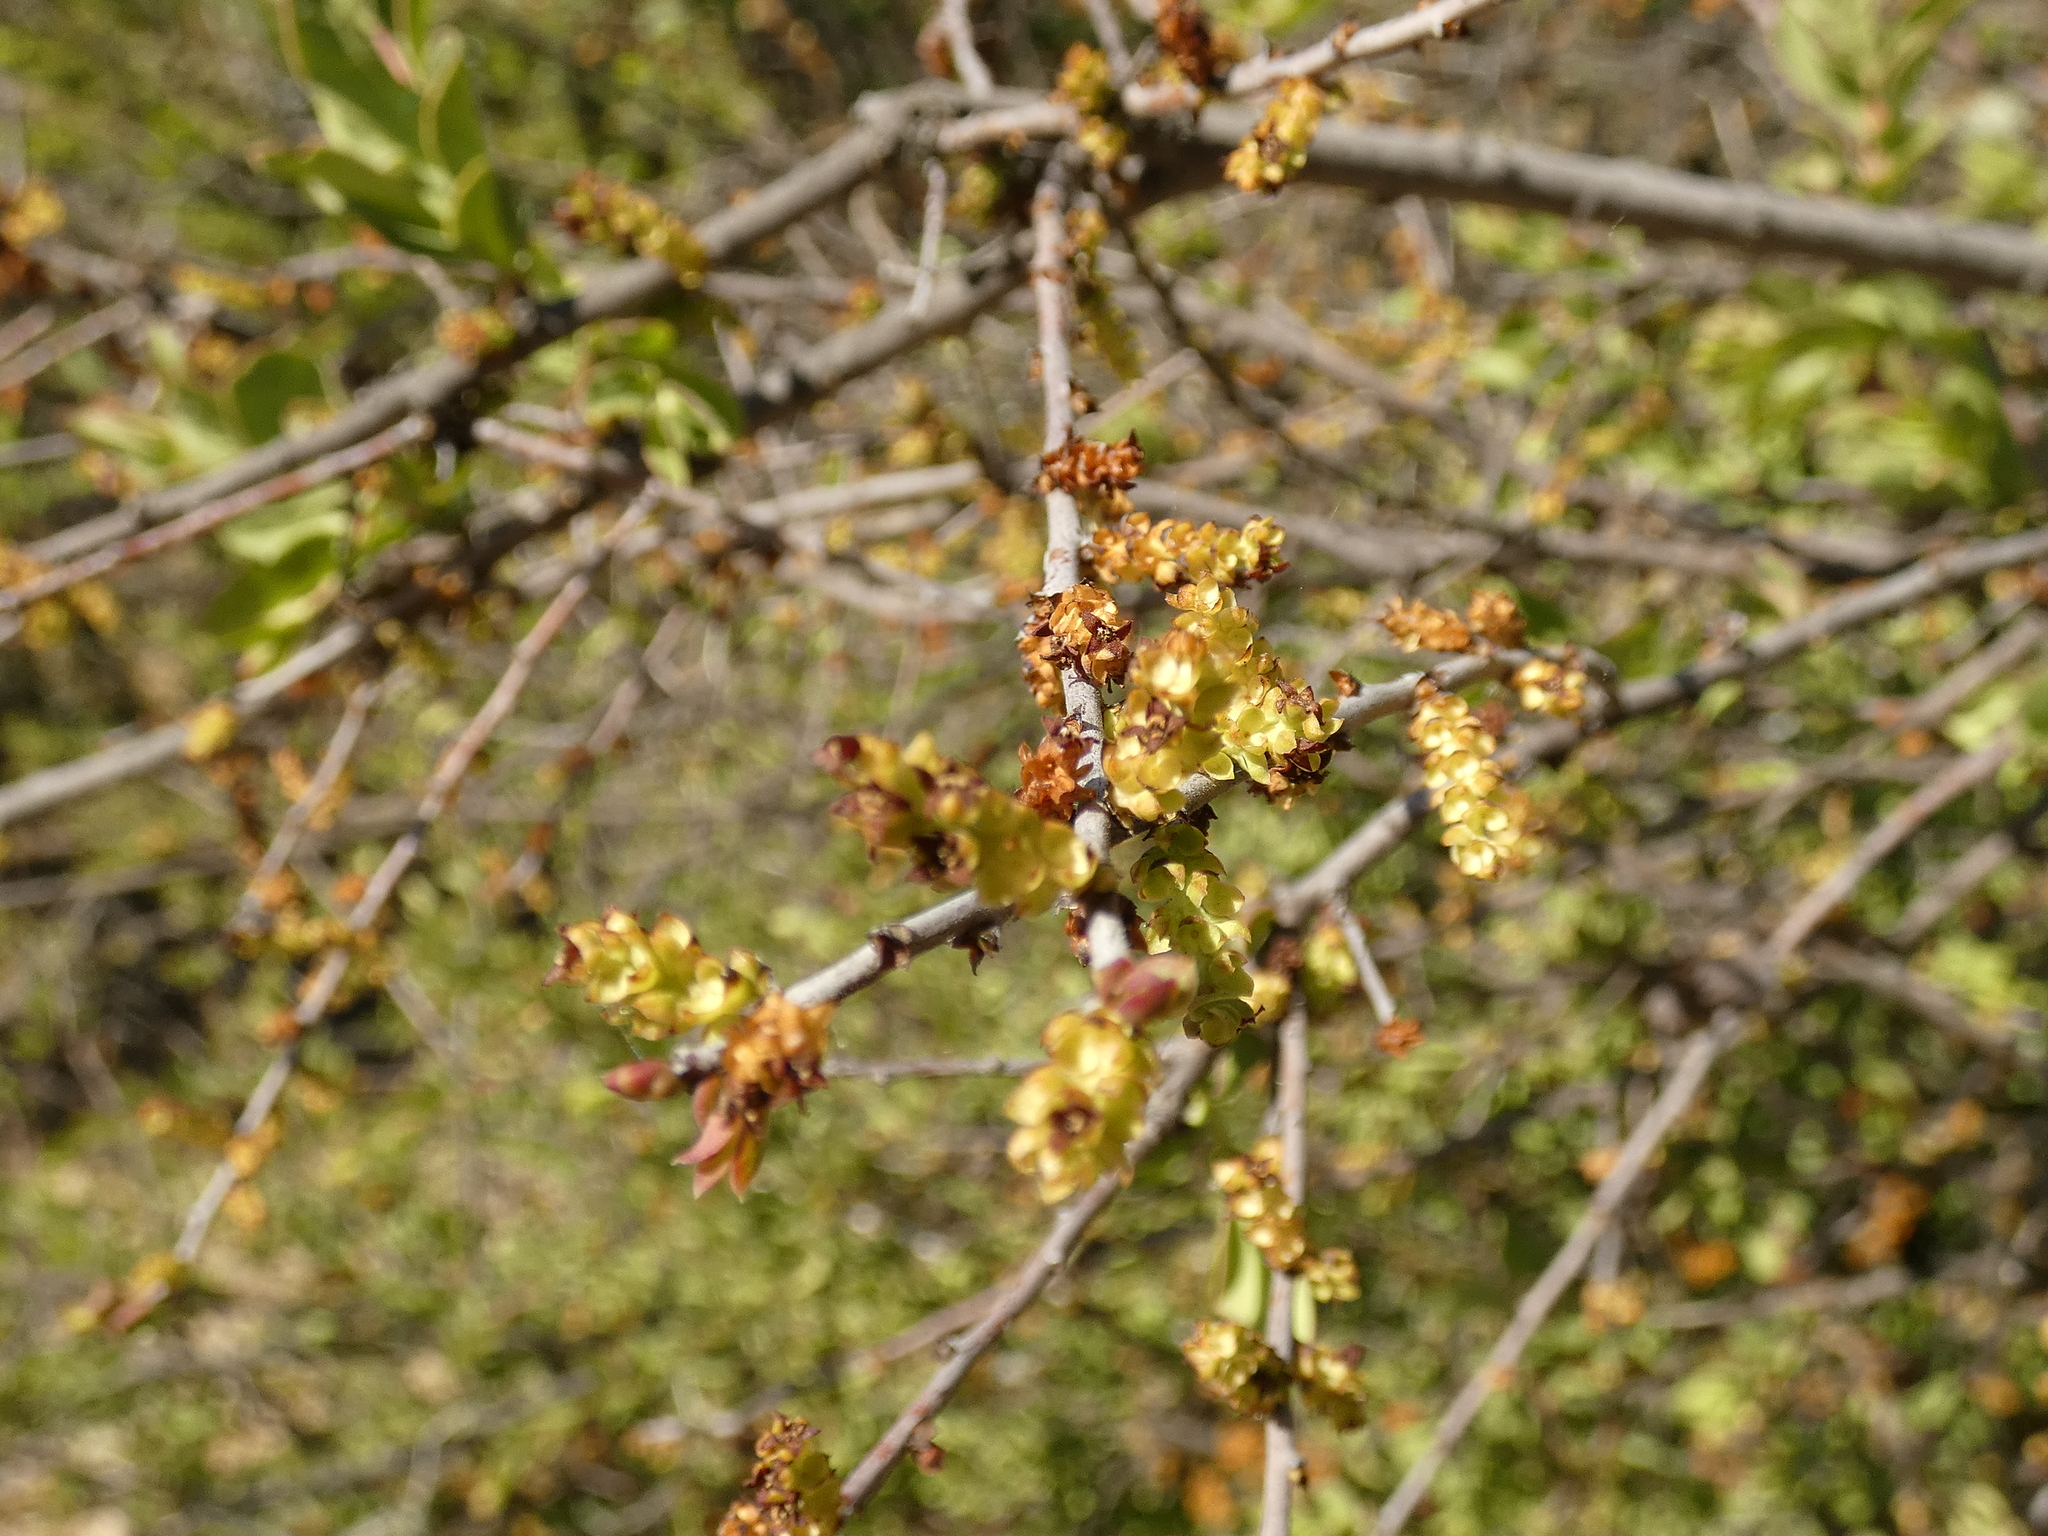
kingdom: Plantae
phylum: Tracheophyta
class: Magnoliopsida
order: Santalales
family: Santalaceae
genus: Myoschilos
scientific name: Myoschilos oblongum
